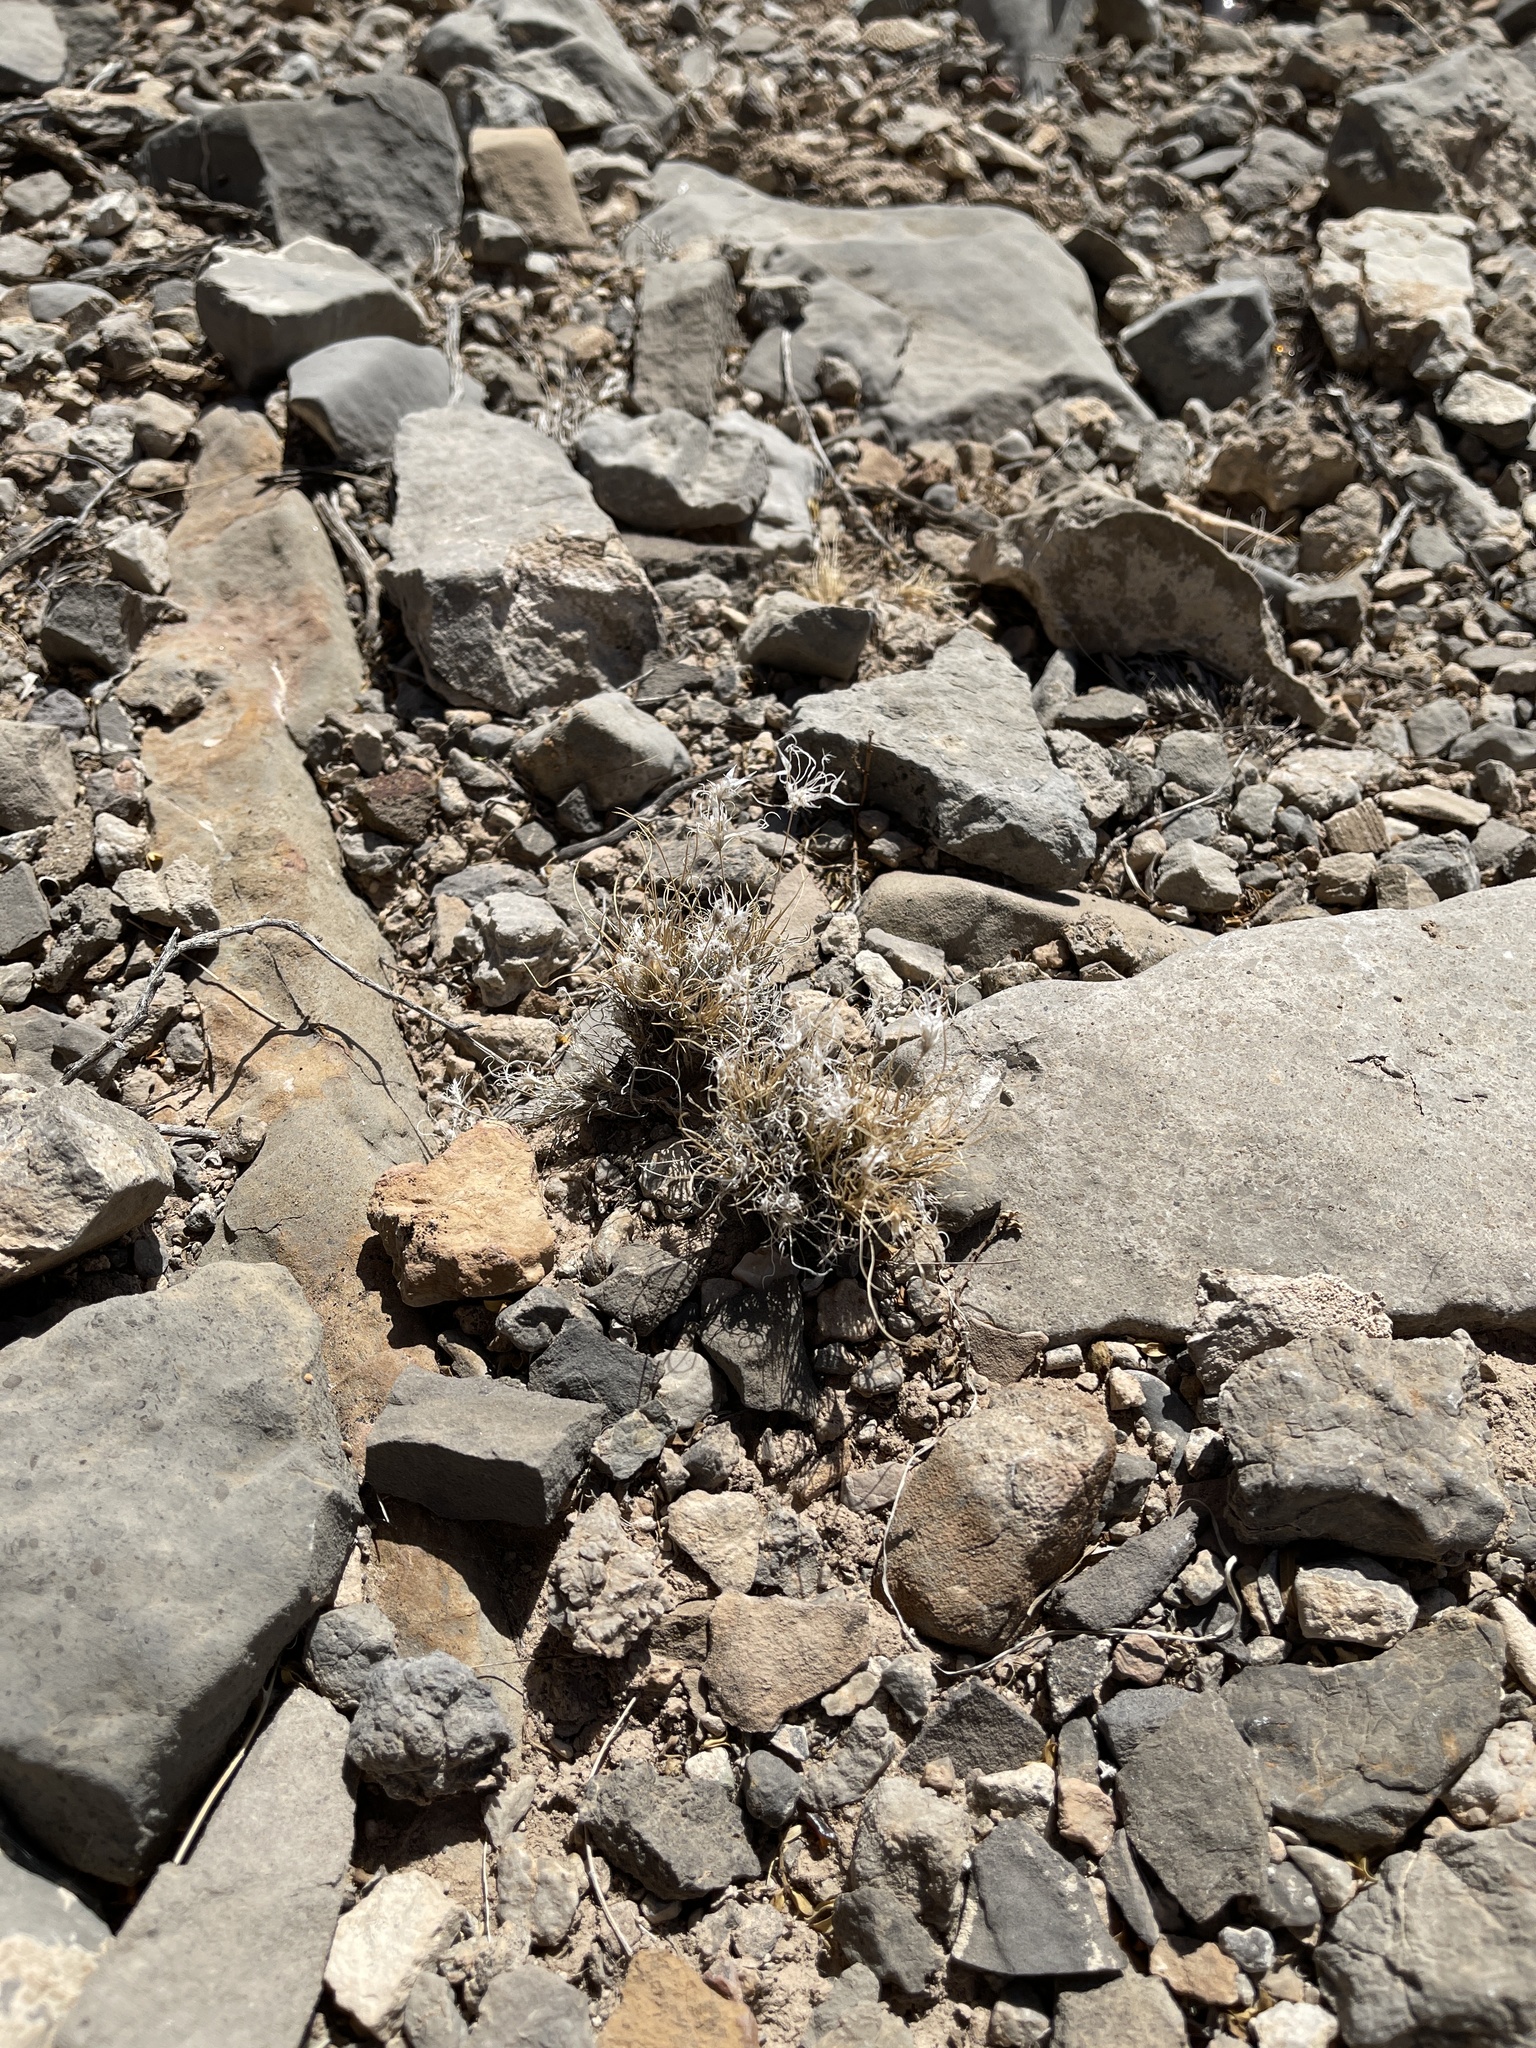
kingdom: Plantae
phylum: Tracheophyta
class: Liliopsida
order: Poales
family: Poaceae
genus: Dasyochloa
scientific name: Dasyochloa pulchella
